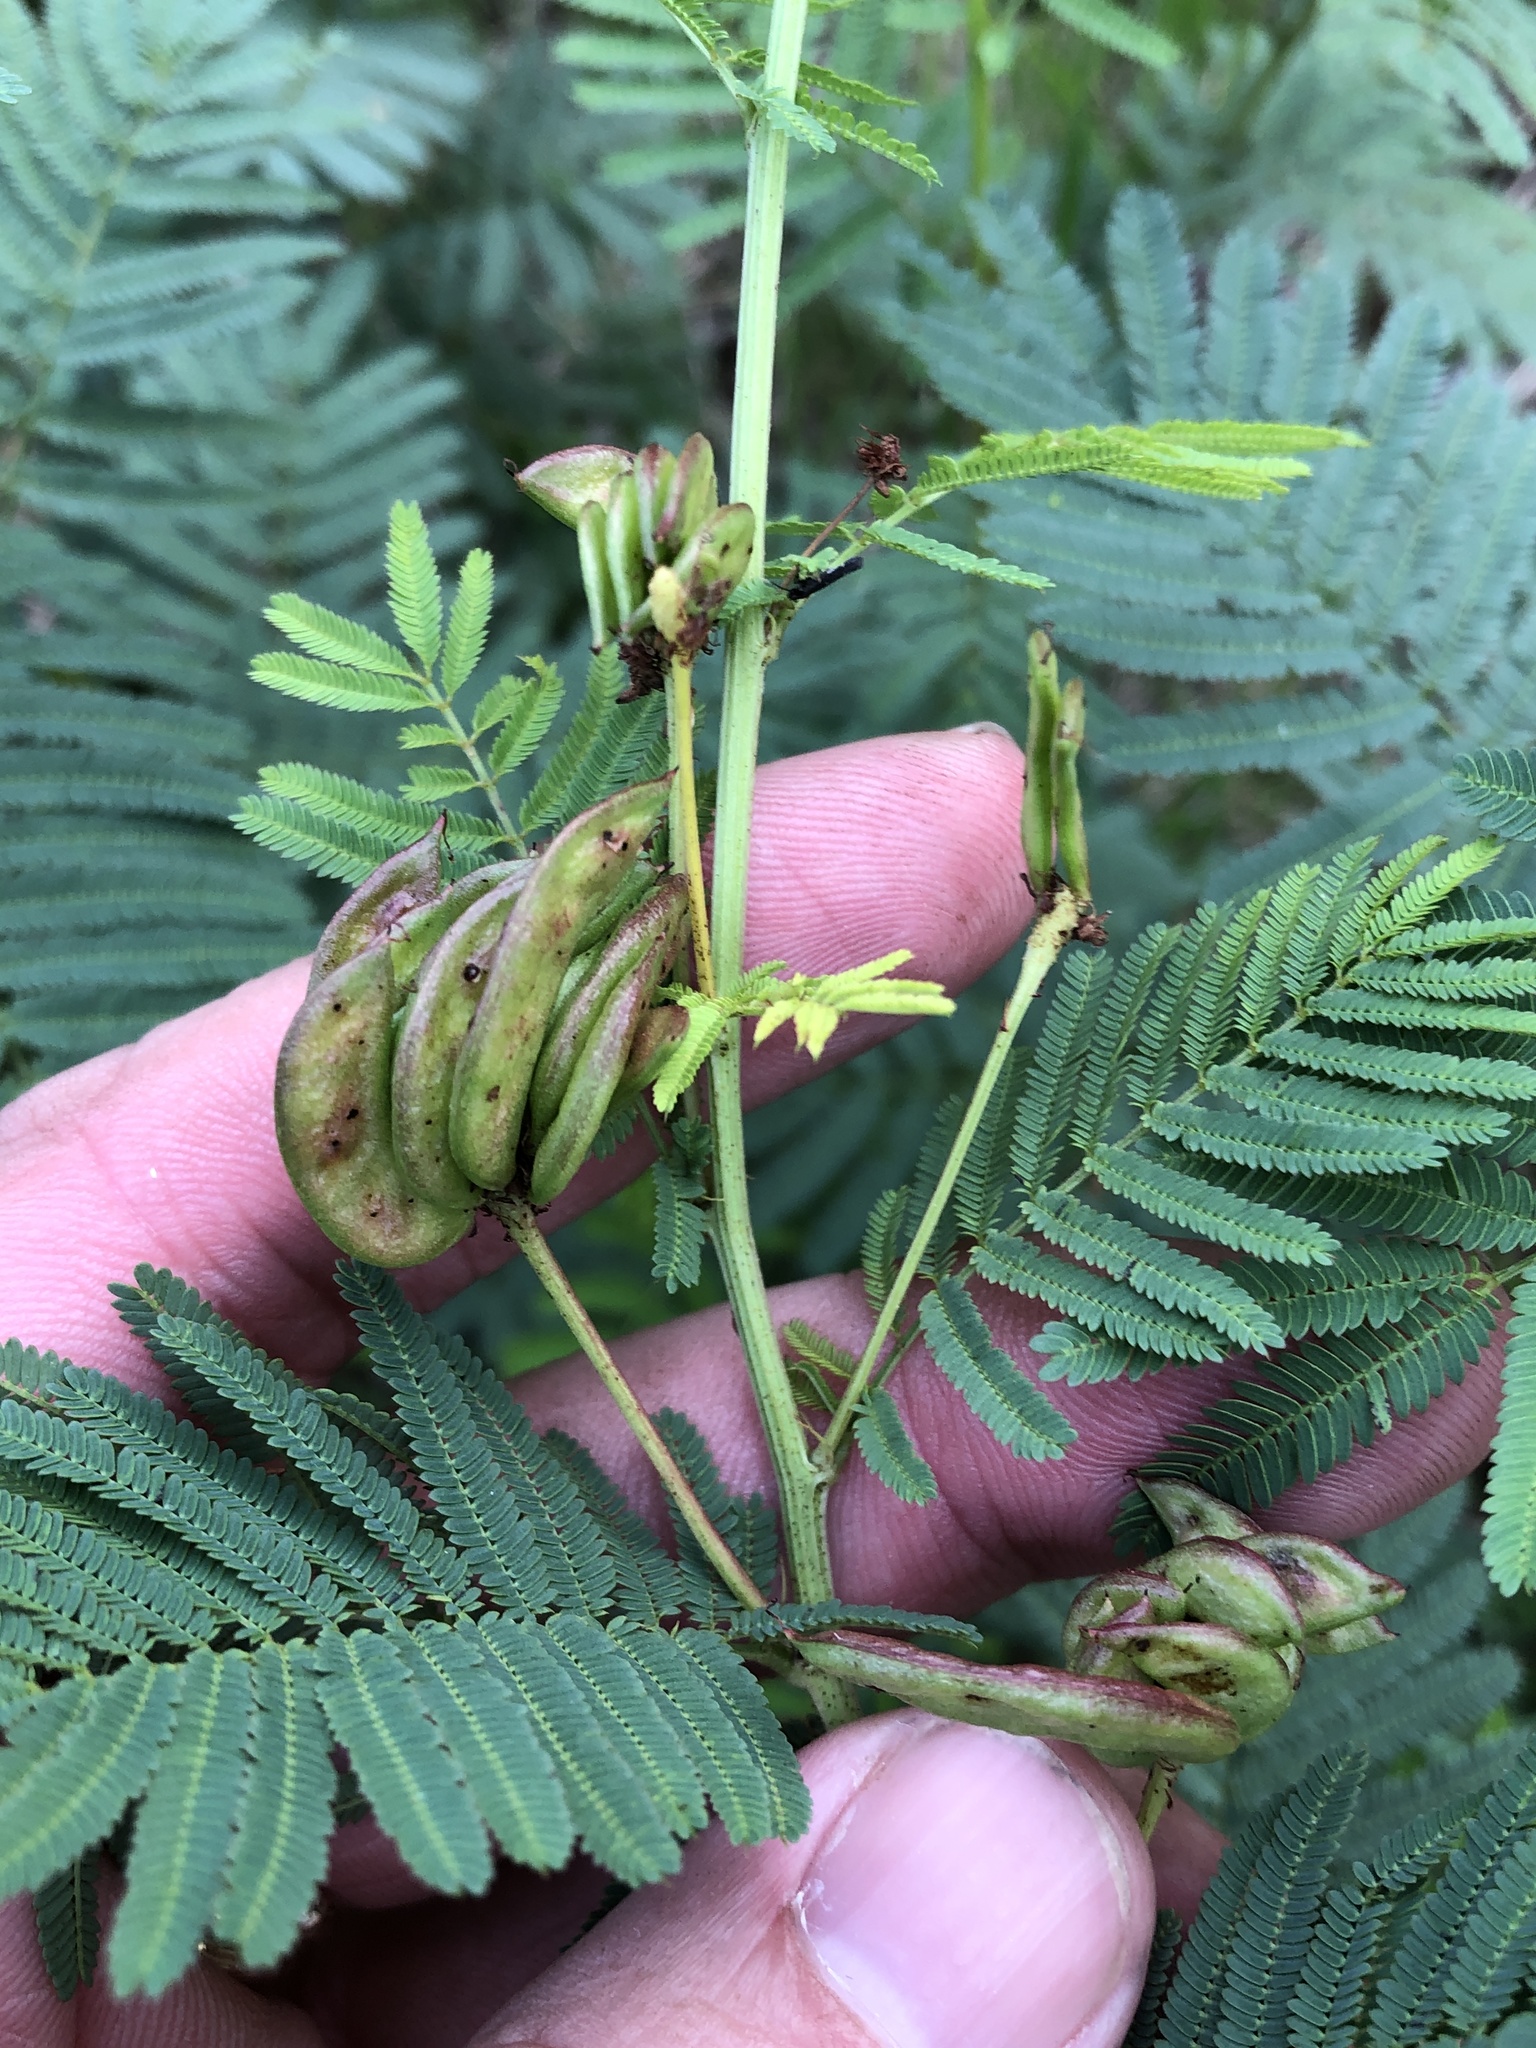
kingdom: Plantae
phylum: Tracheophyta
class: Magnoliopsida
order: Fabales
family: Fabaceae
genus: Desmanthus
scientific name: Desmanthus illinoensis
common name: Illinois bundle-flower
